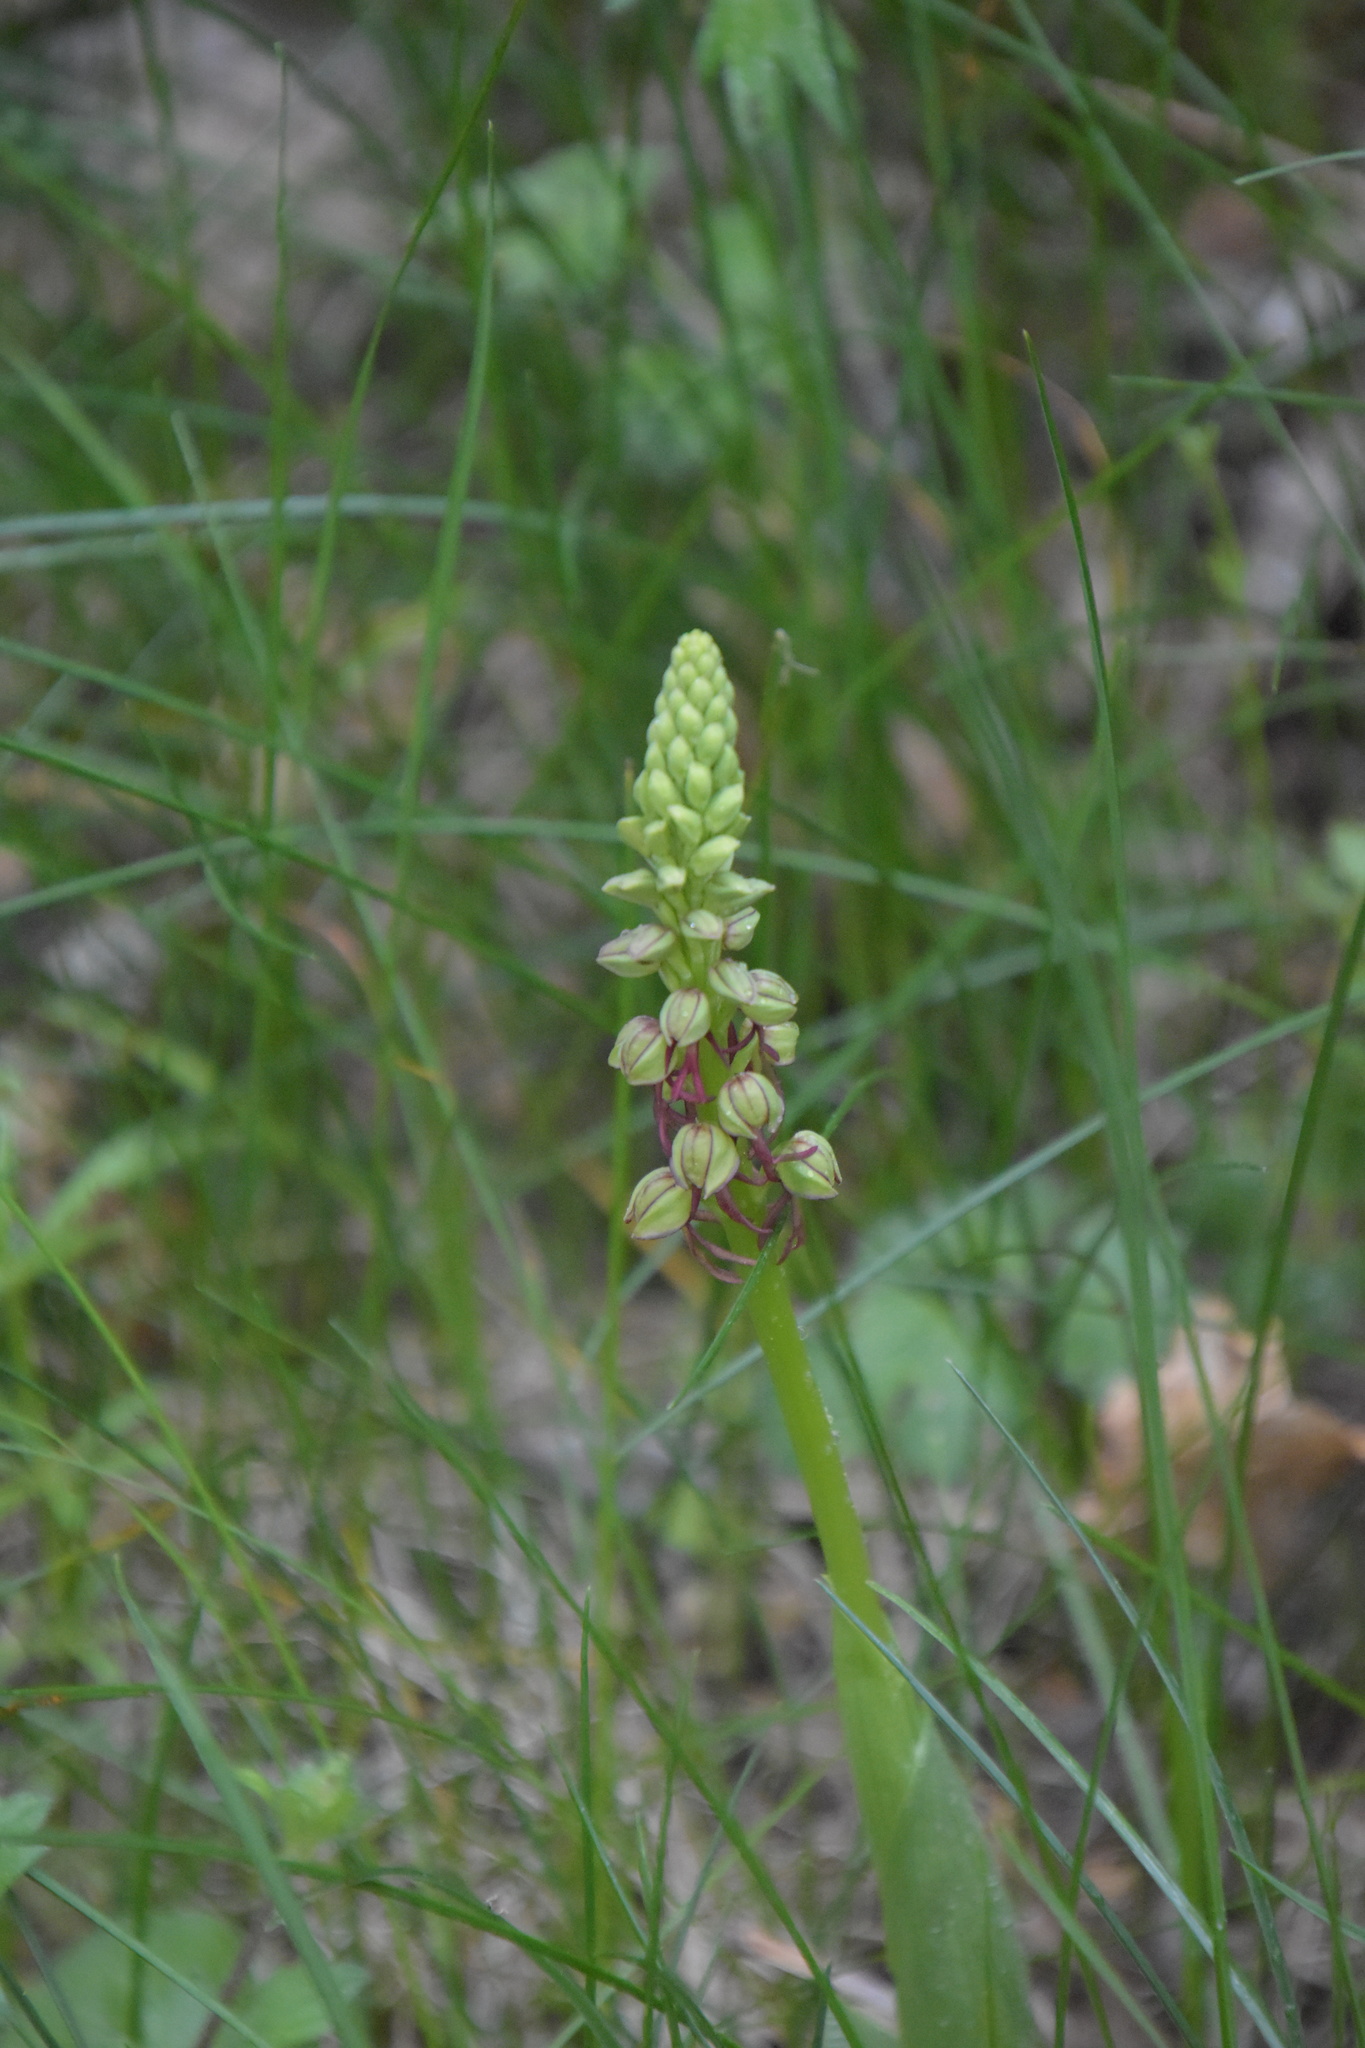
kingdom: Plantae
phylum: Tracheophyta
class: Liliopsida
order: Asparagales
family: Orchidaceae
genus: Orchis
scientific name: Orchis anthropophora
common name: Man orchid
